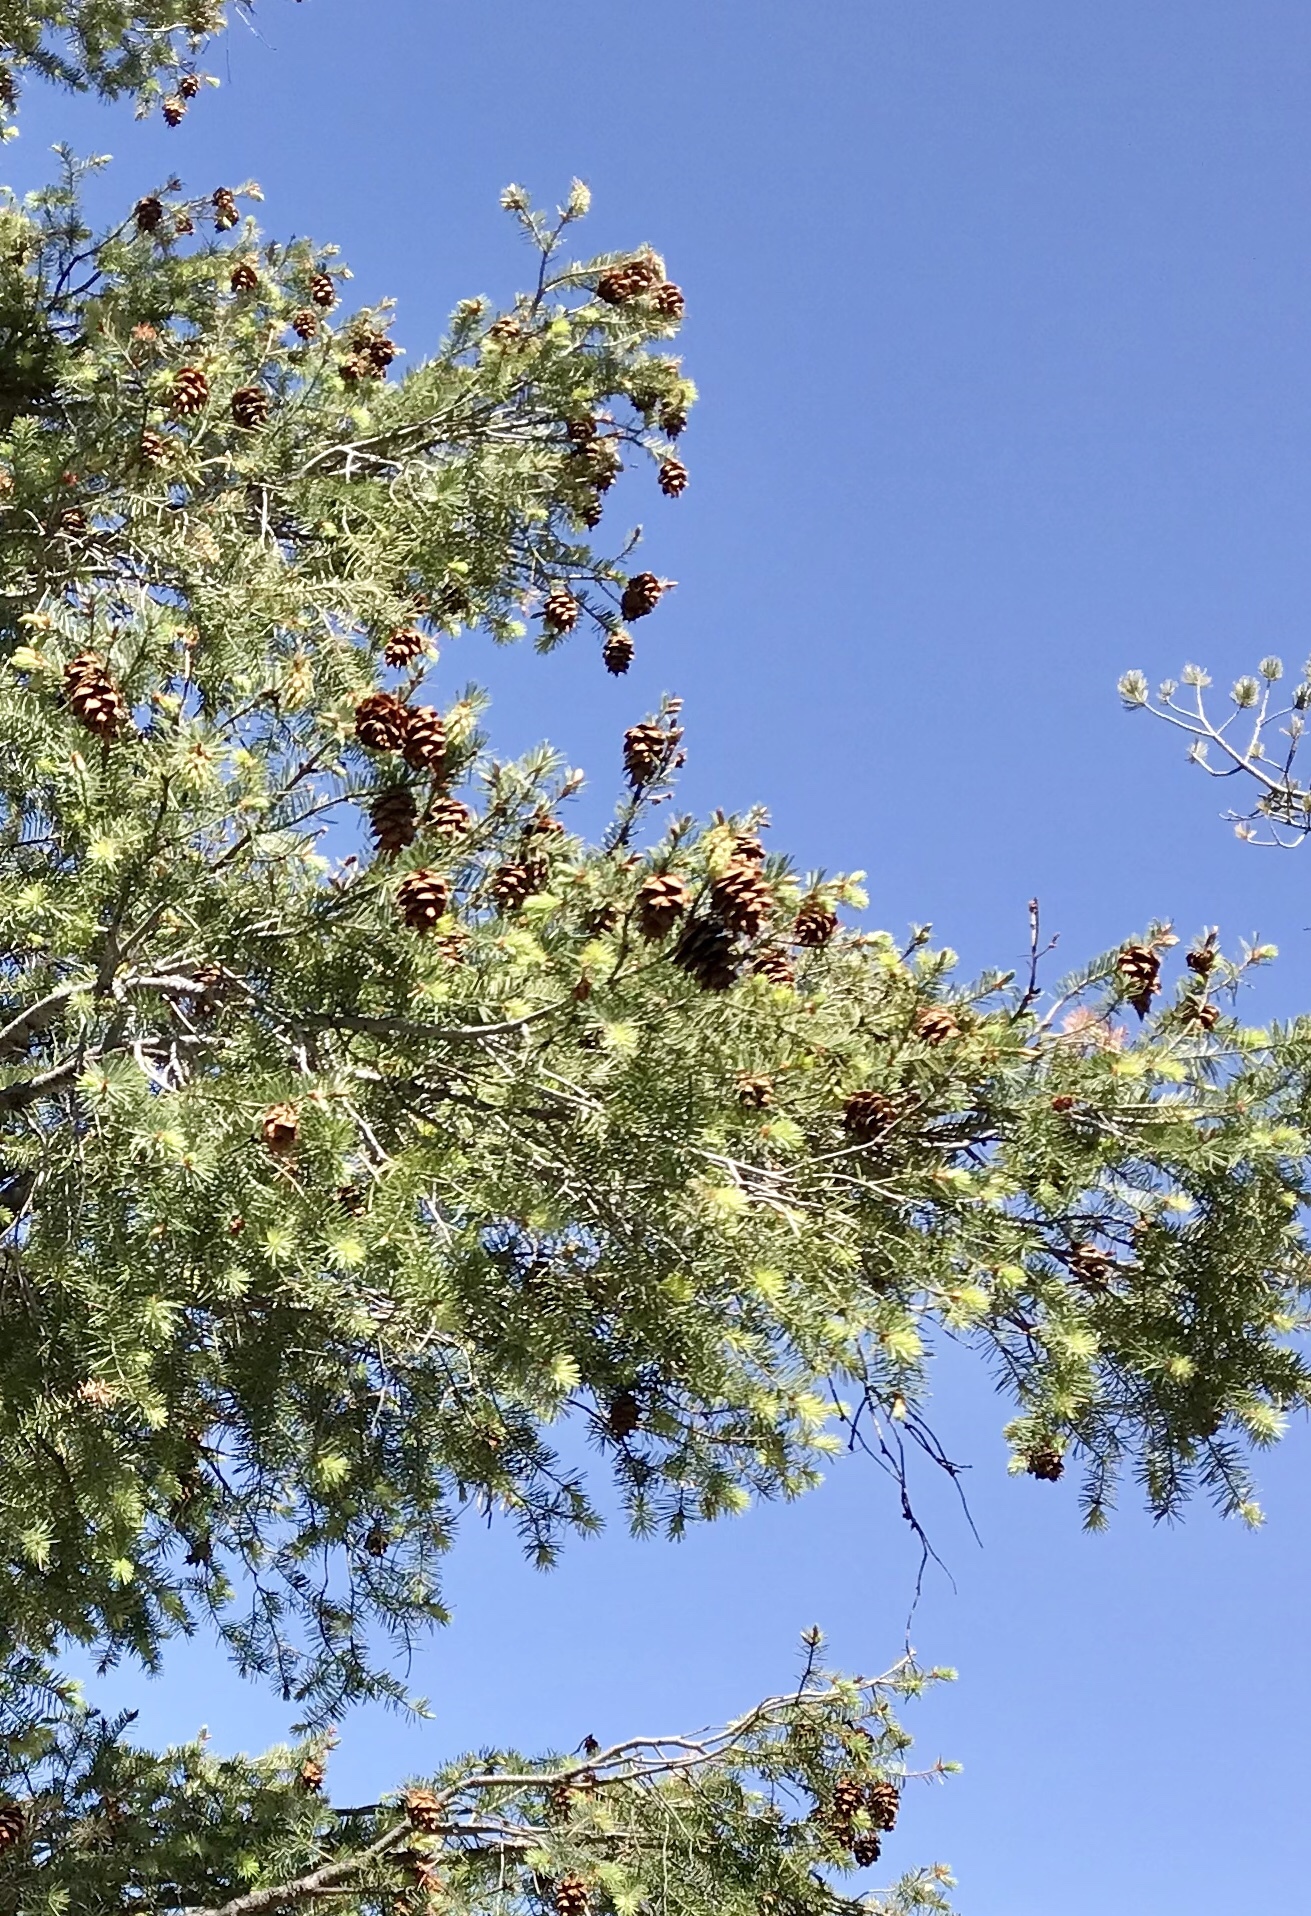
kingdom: Plantae
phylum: Tracheophyta
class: Pinopsida
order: Pinales
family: Pinaceae
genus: Pseudotsuga
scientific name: Pseudotsuga menziesii
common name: Douglas fir
